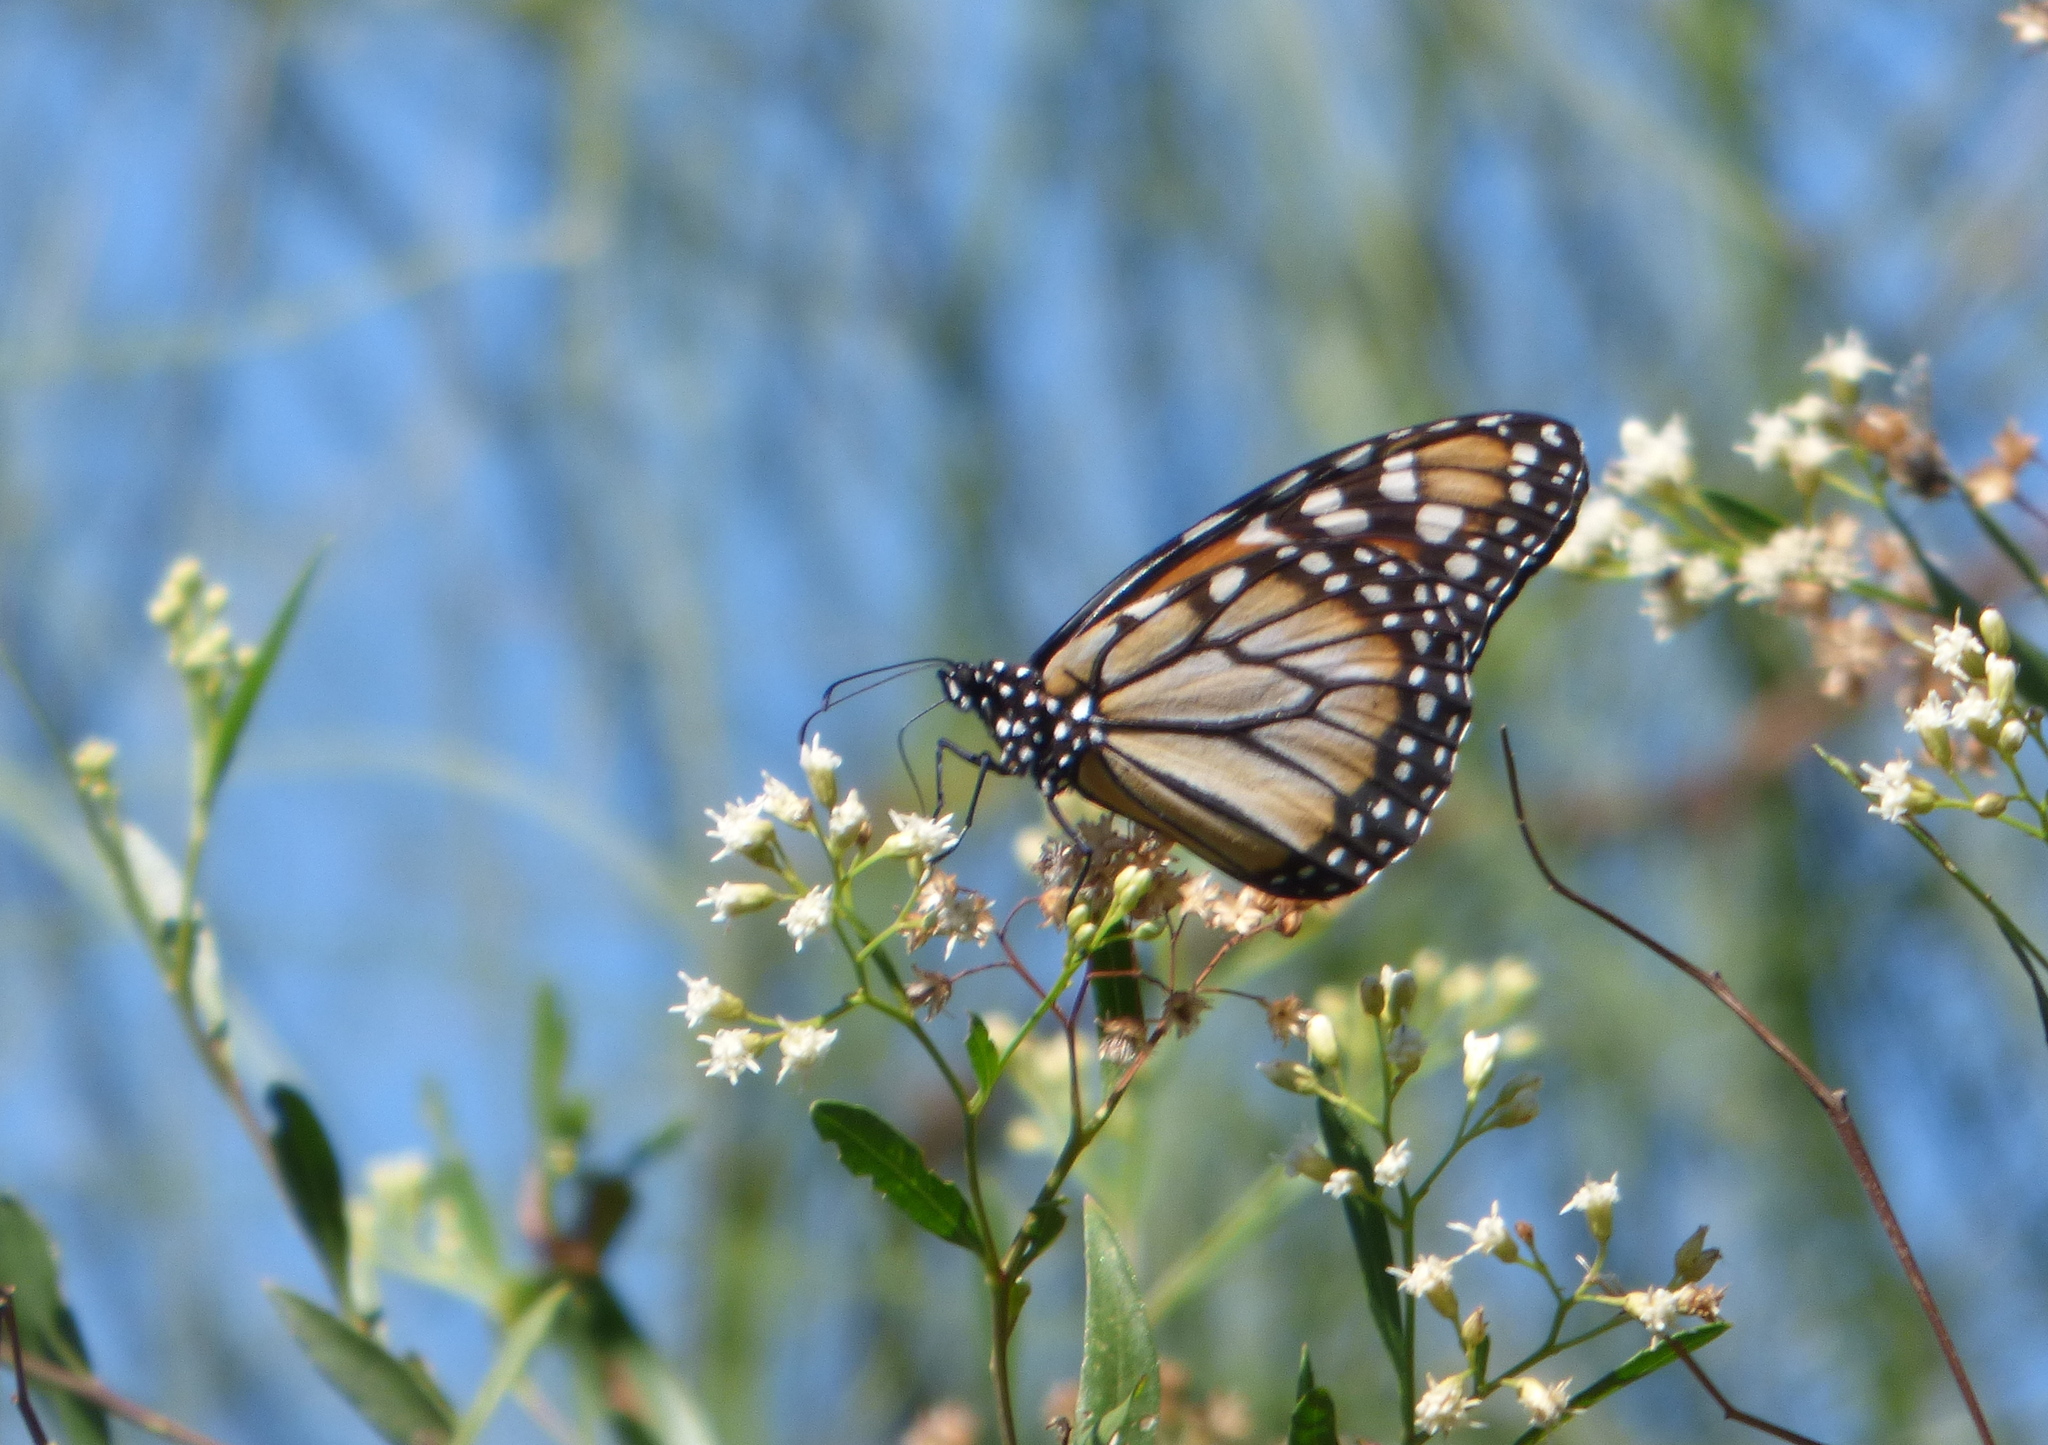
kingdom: Animalia
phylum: Arthropoda
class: Insecta
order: Lepidoptera
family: Nymphalidae
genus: Danaus
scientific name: Danaus erippus
